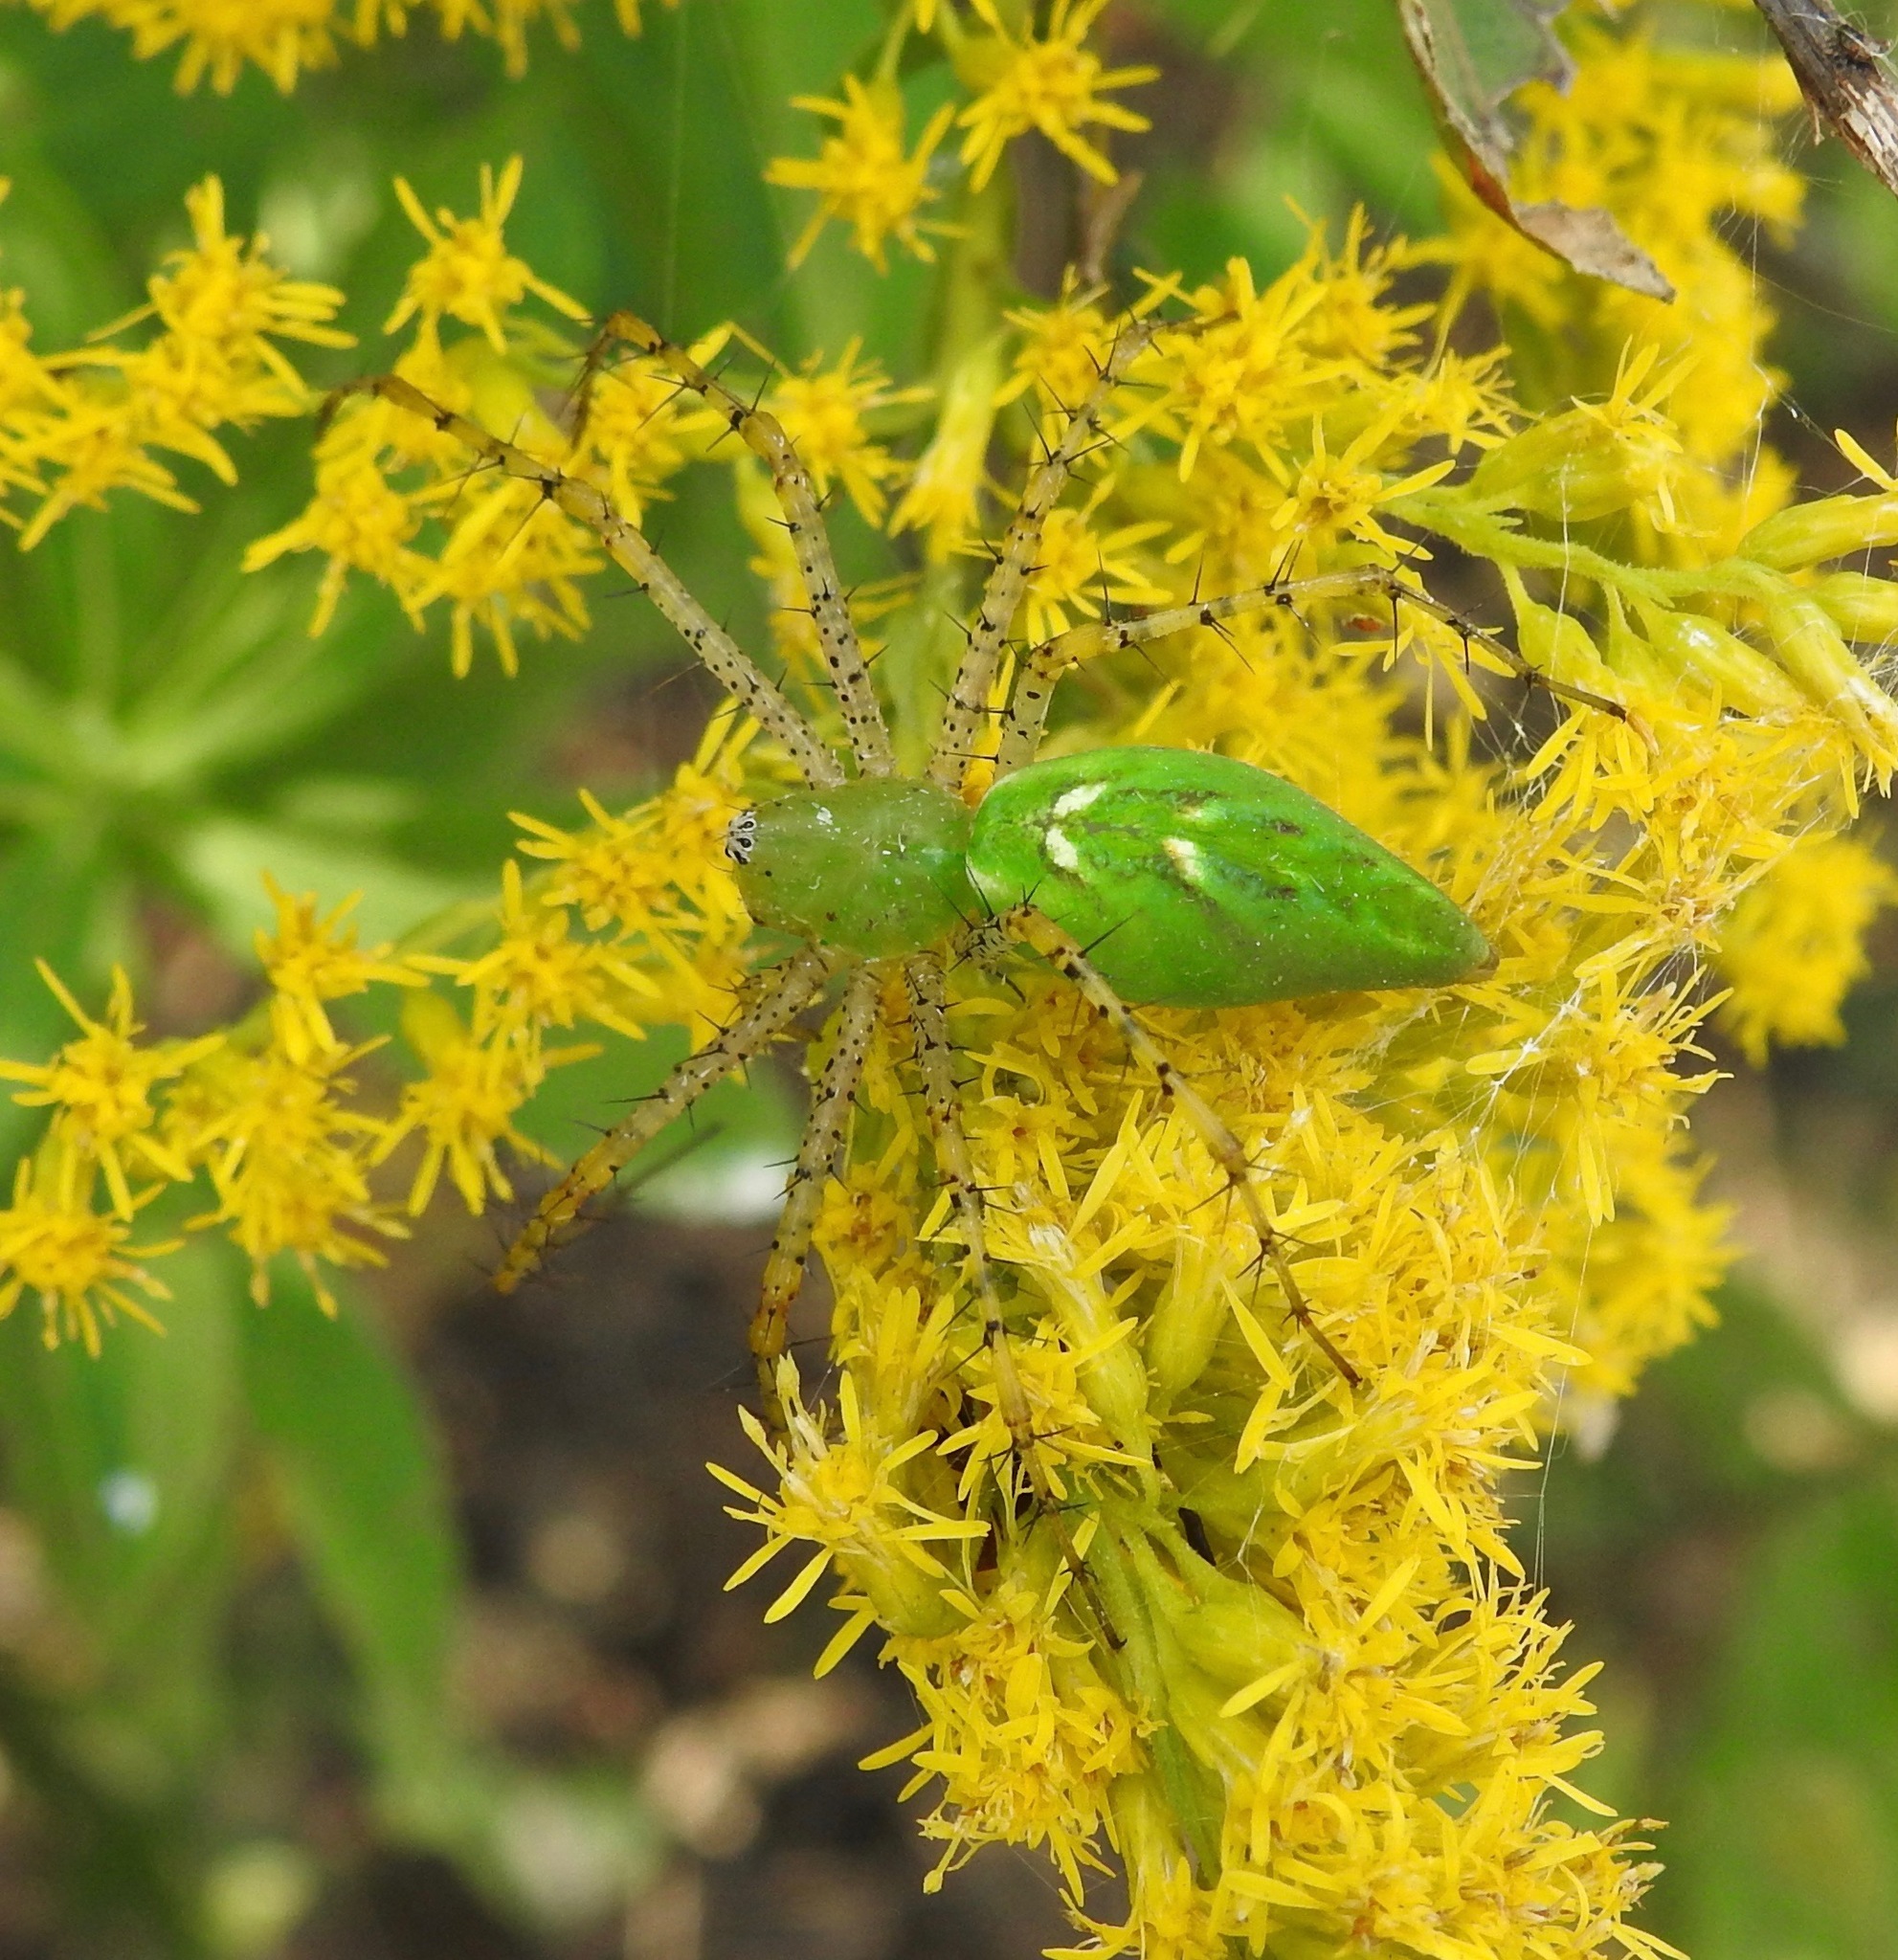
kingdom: Animalia
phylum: Arthropoda
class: Arachnida
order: Araneae
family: Oxyopidae
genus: Peucetia
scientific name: Peucetia viridans
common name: Lynx spiders
